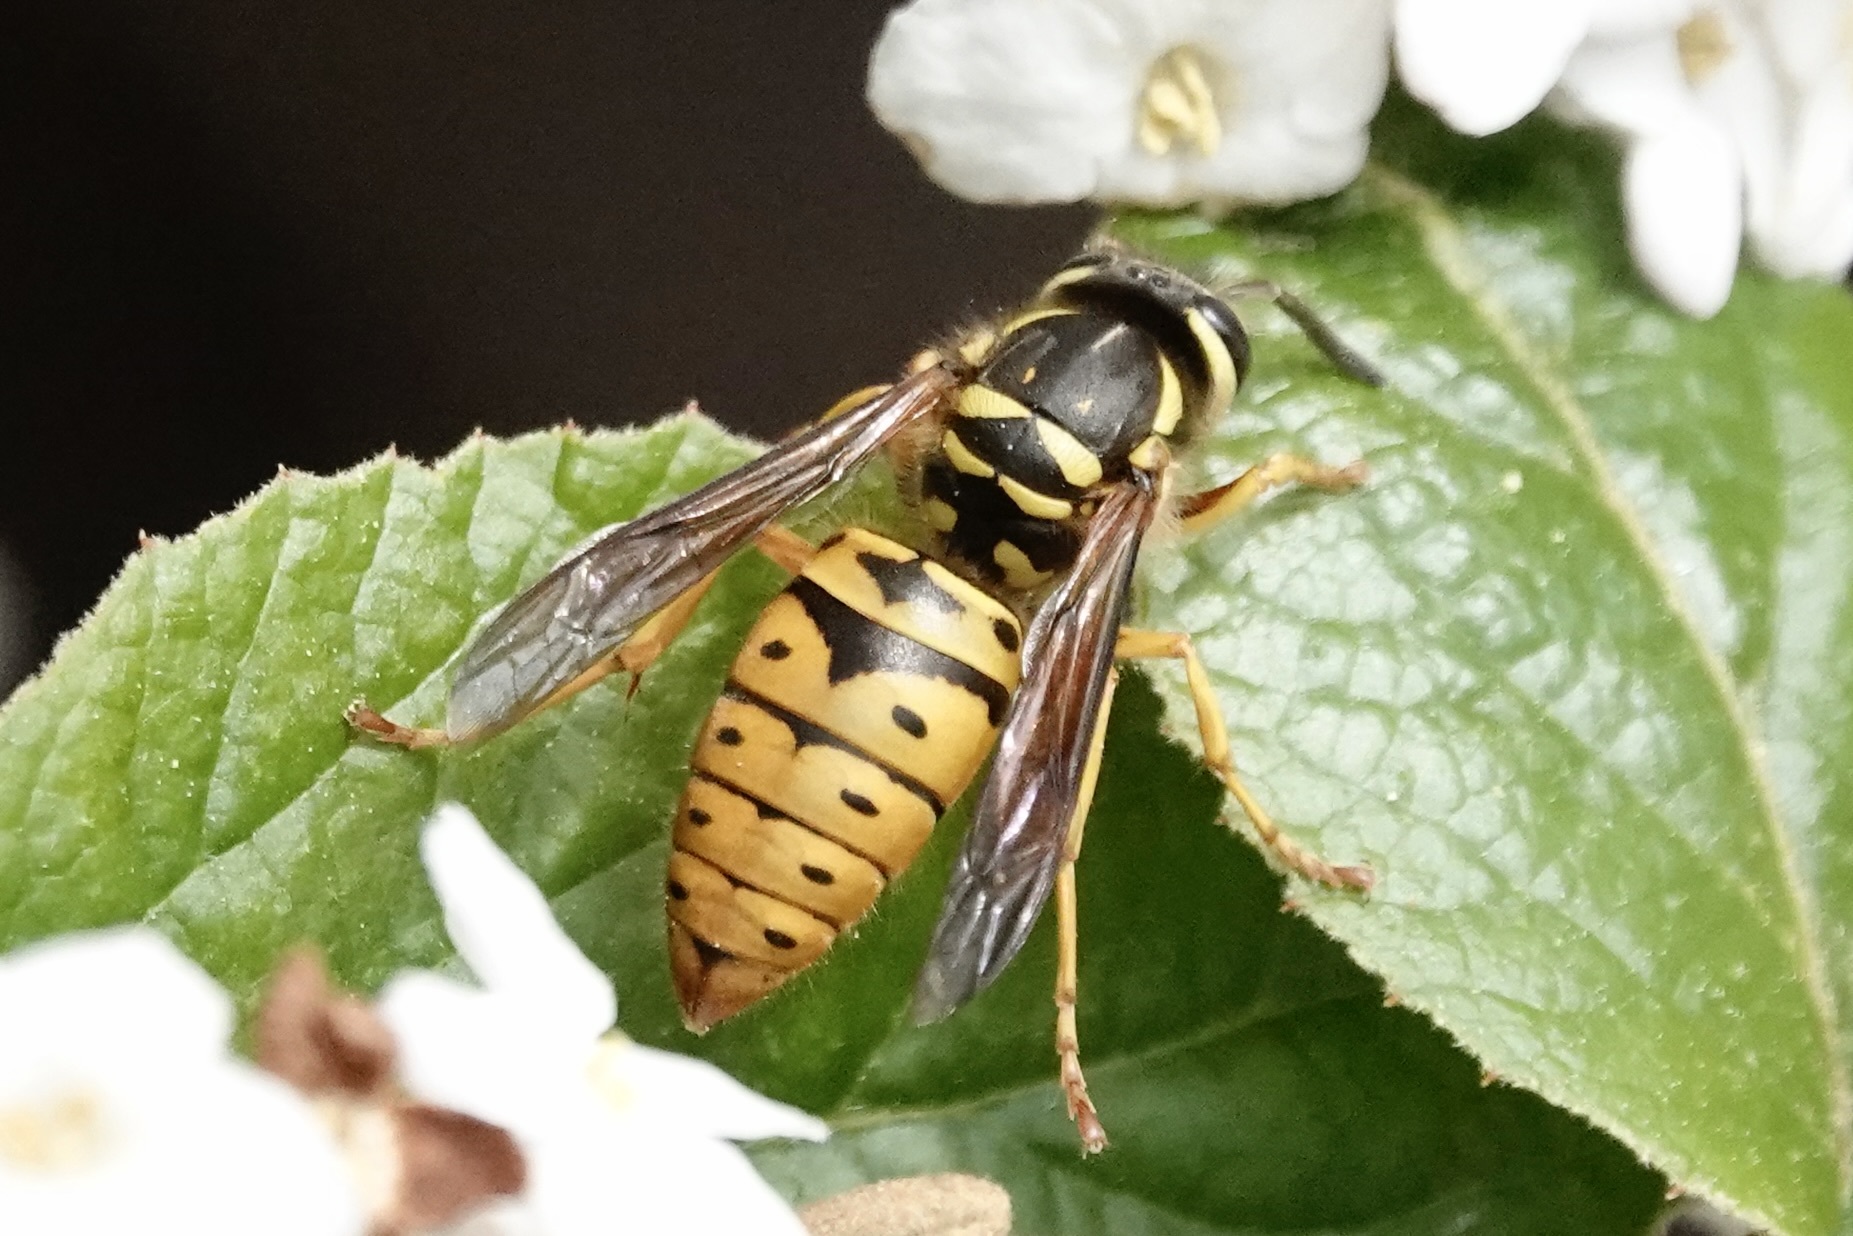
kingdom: Animalia
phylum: Arthropoda
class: Insecta
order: Hymenoptera
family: Vespidae
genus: Vespula
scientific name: Vespula maculifrons
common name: Eastern yellowjacket
